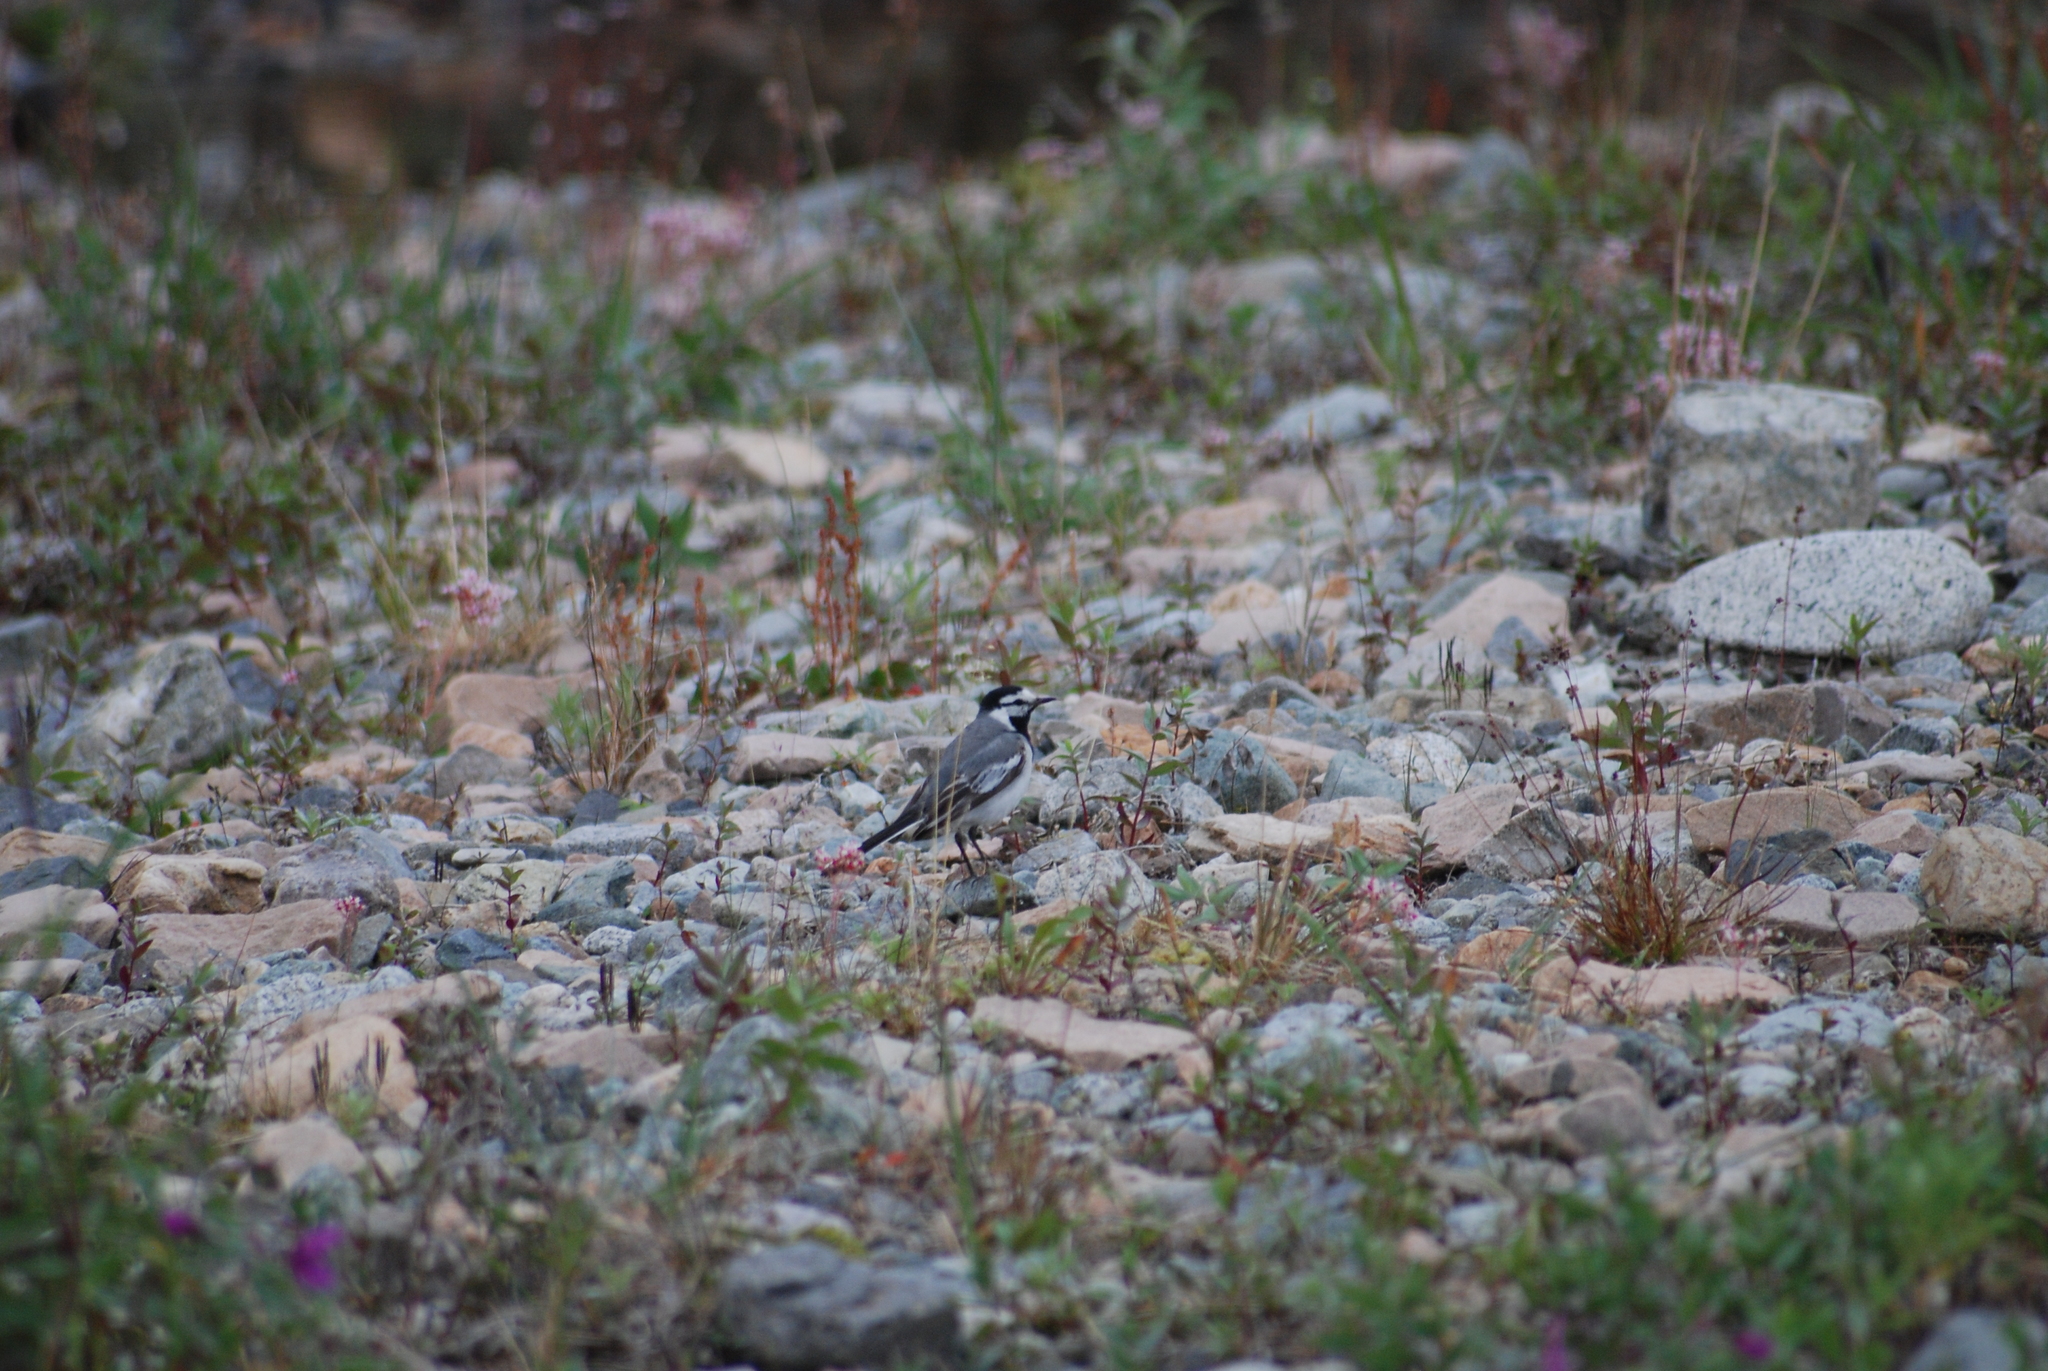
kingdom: Animalia
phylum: Chordata
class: Aves
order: Passeriformes
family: Motacillidae
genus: Motacilla
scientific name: Motacilla alba
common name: White wagtail
